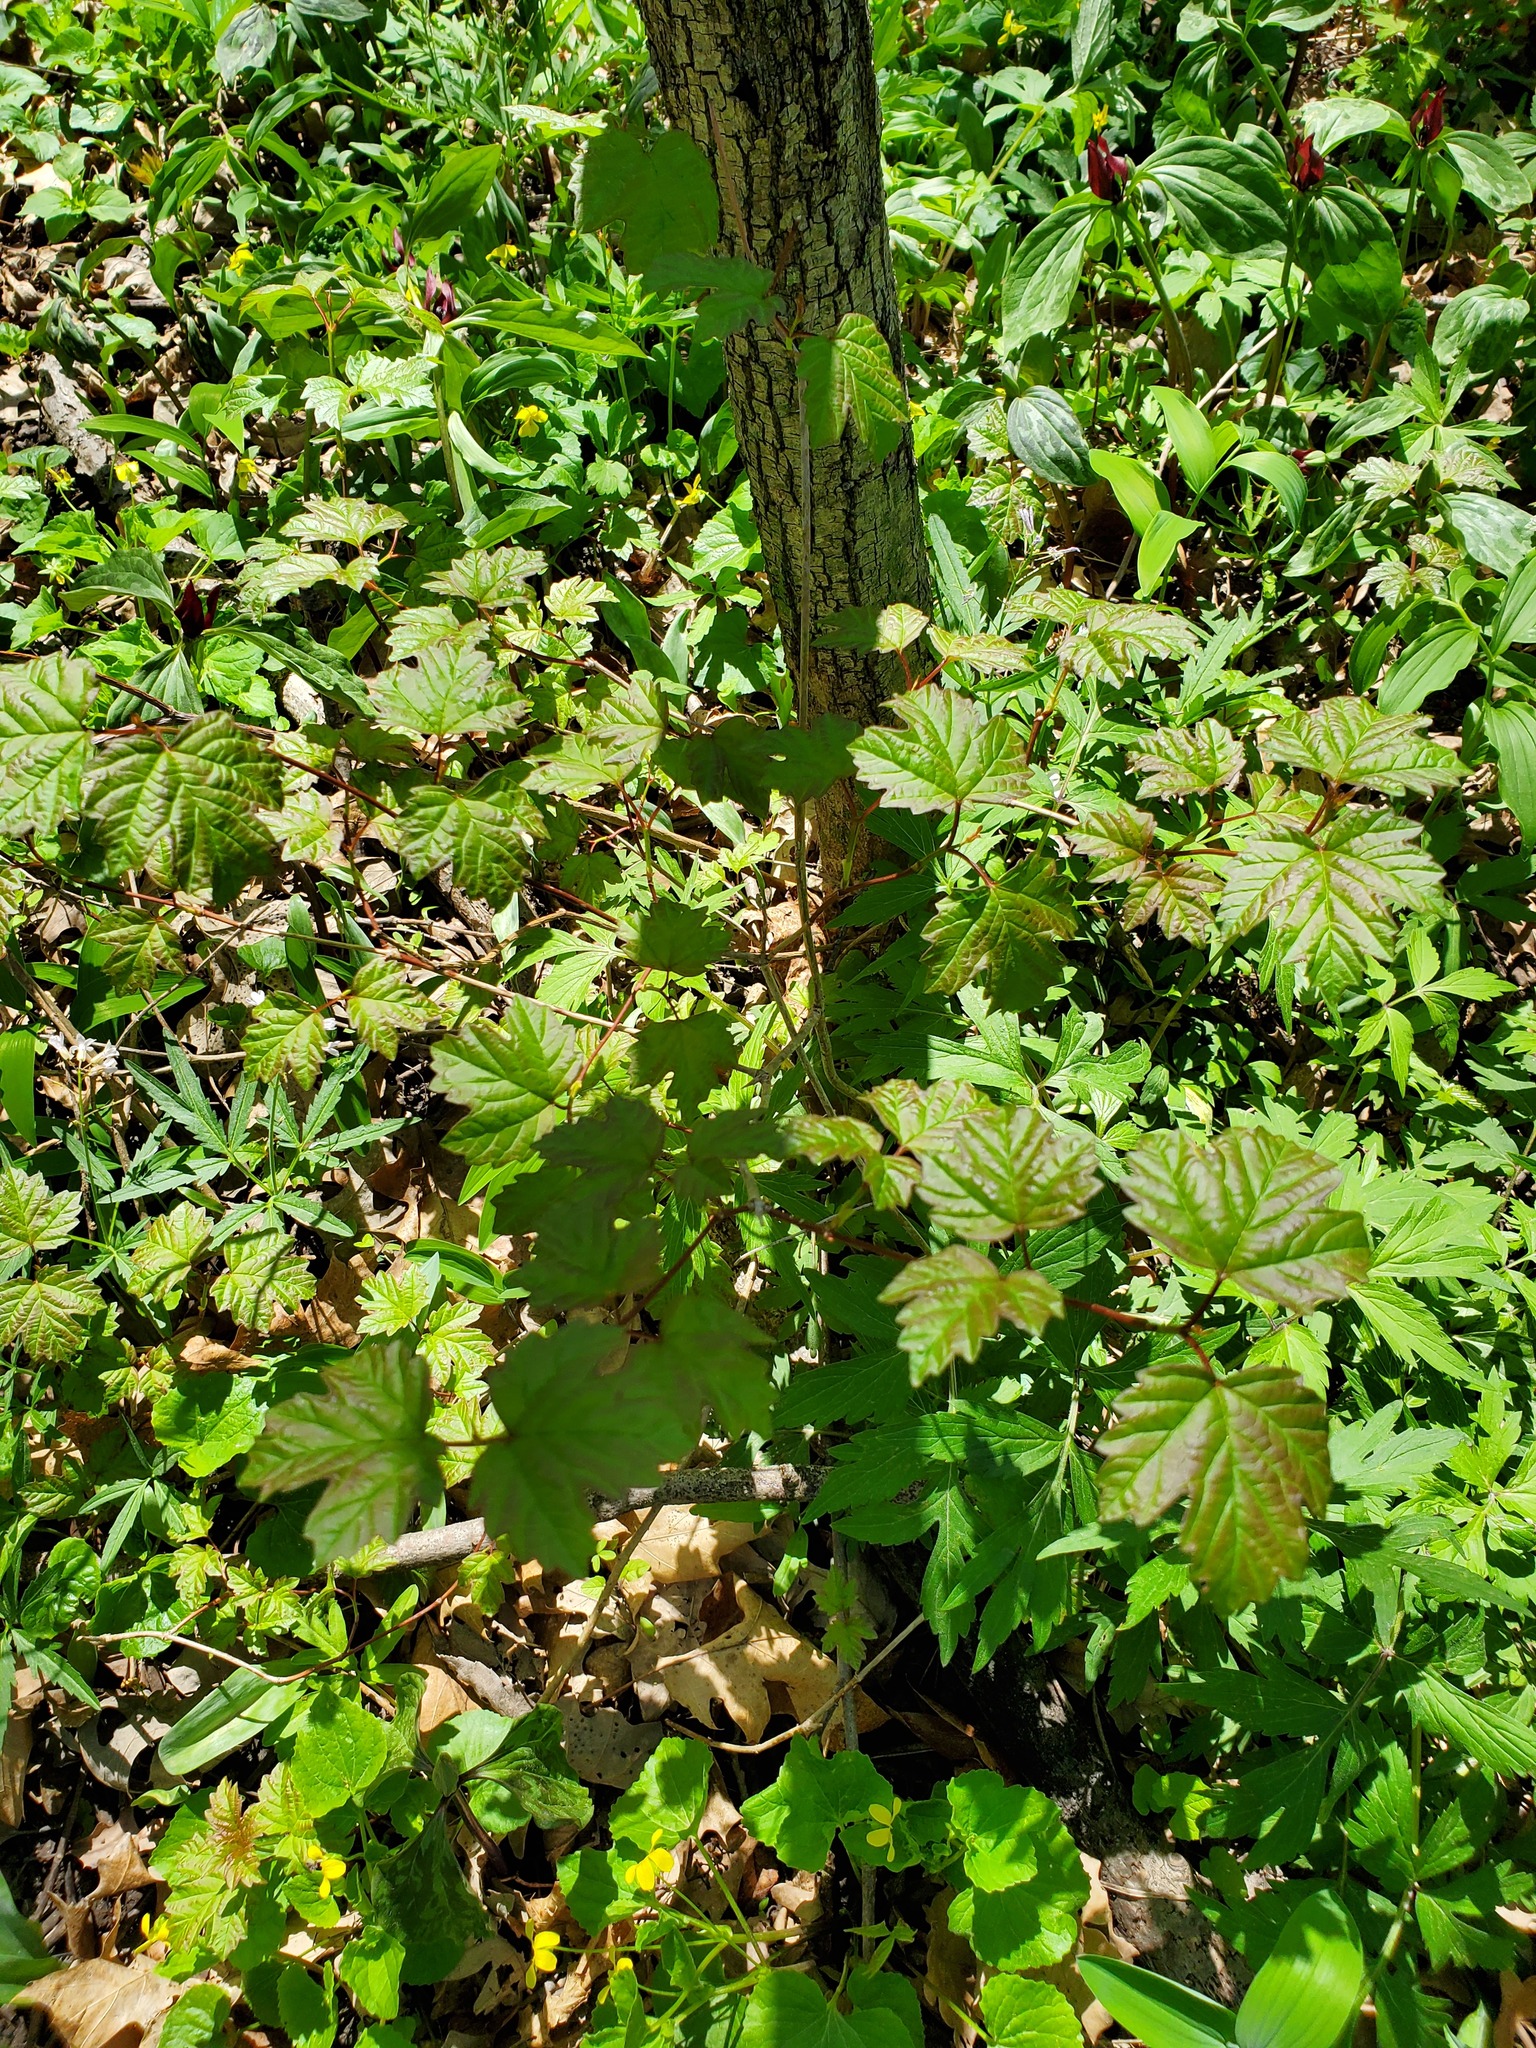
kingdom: Plantae
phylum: Tracheophyta
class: Magnoliopsida
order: Dipsacales
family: Viburnaceae
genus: Viburnum
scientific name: Viburnum opulus
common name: Guelder-rose
